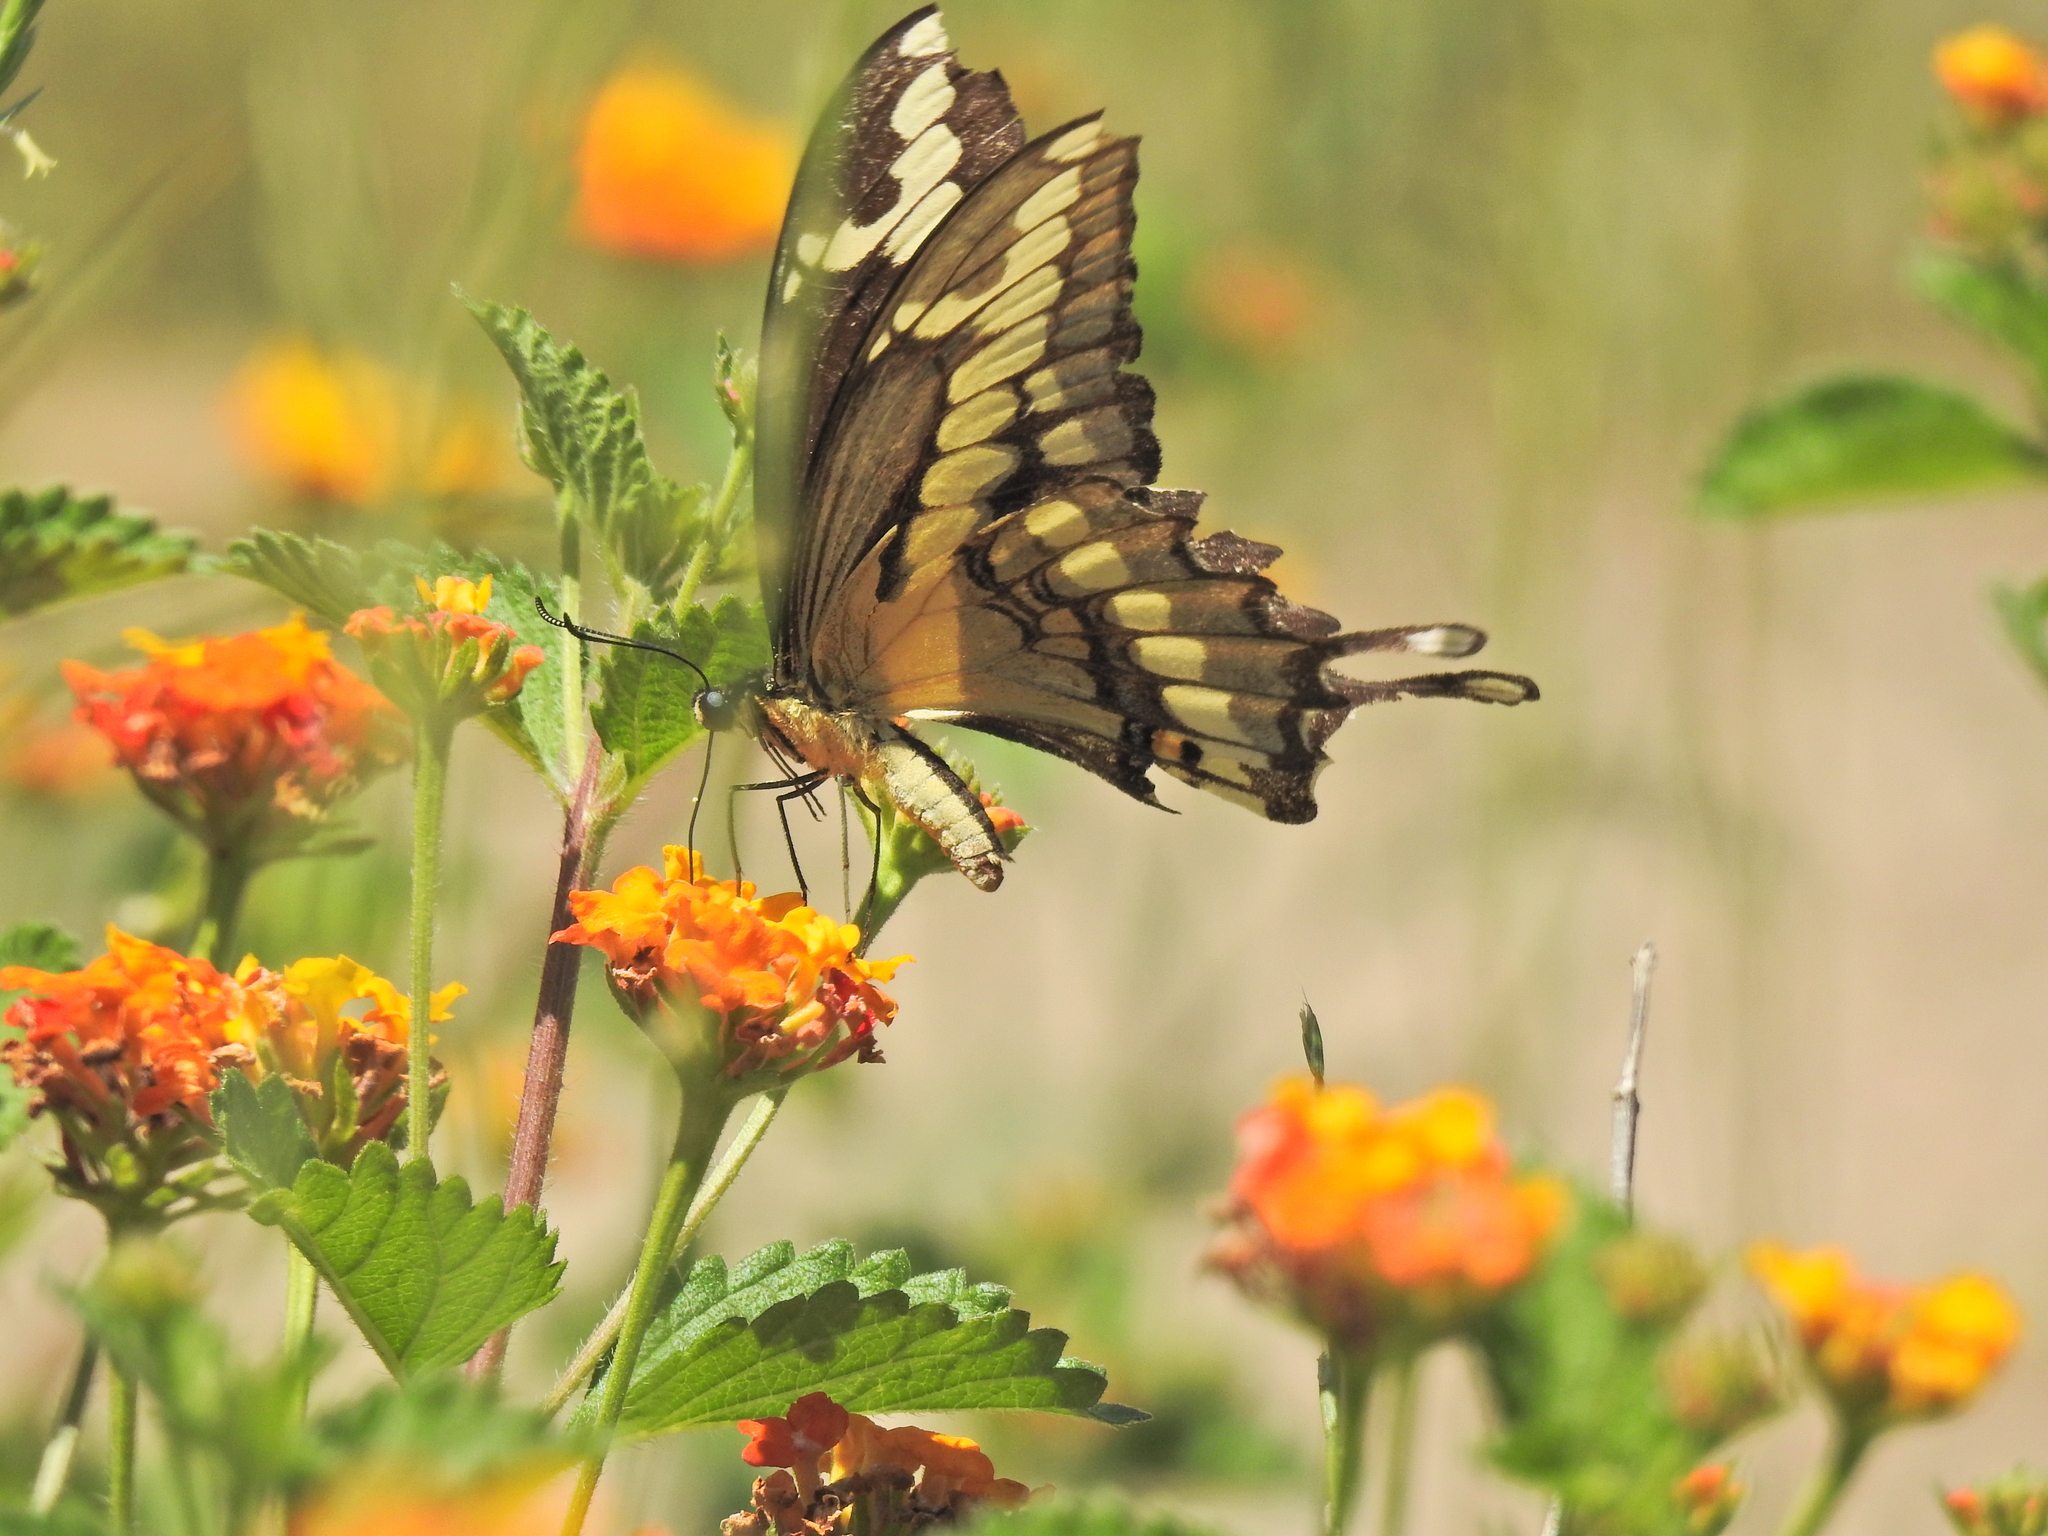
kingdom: Animalia
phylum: Arthropoda
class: Insecta
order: Lepidoptera
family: Papilionidae
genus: Papilio
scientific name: Papilio cresphontes
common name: Giant swallowtail
